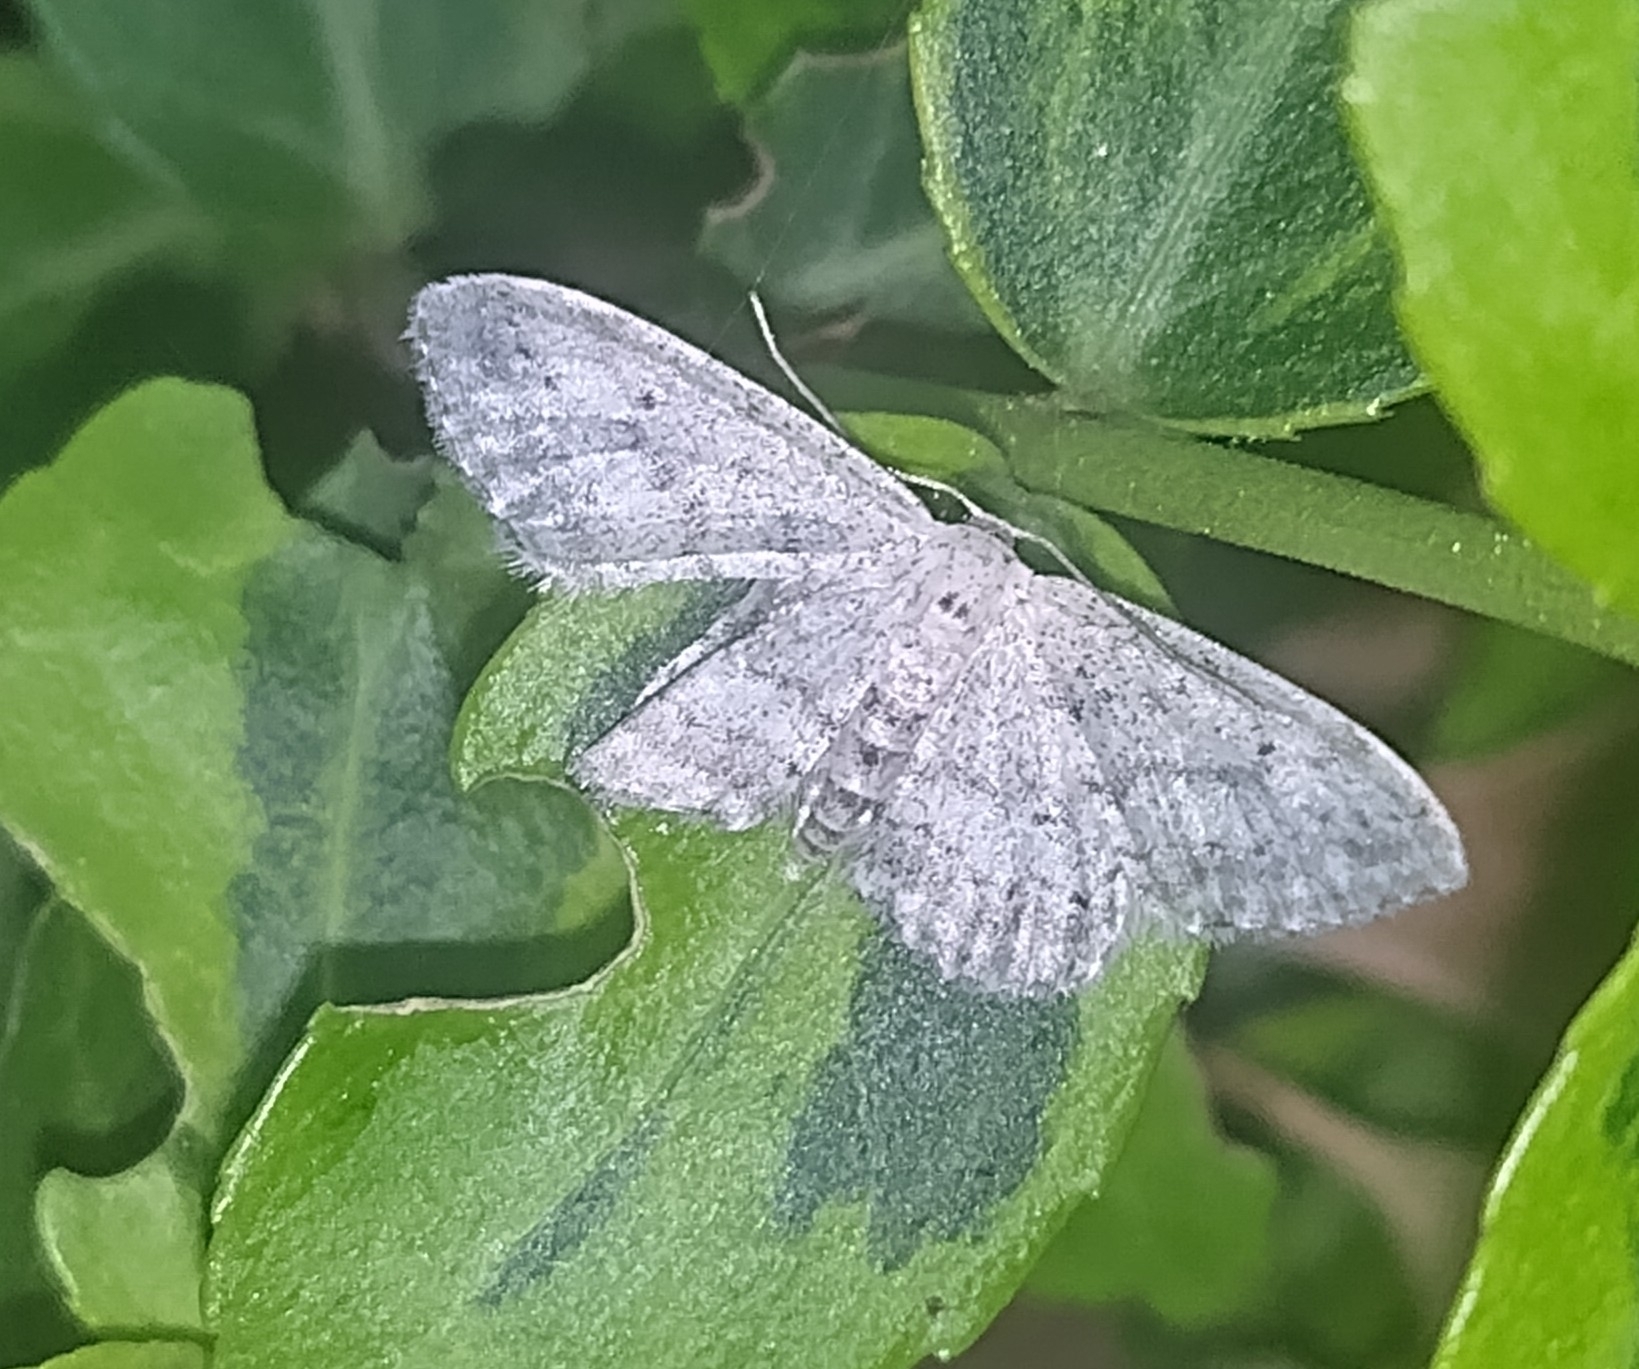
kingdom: Animalia
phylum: Arthropoda
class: Insecta
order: Lepidoptera
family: Geometridae
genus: Idaea
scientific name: Idaea seriata
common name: Small dusty wave
